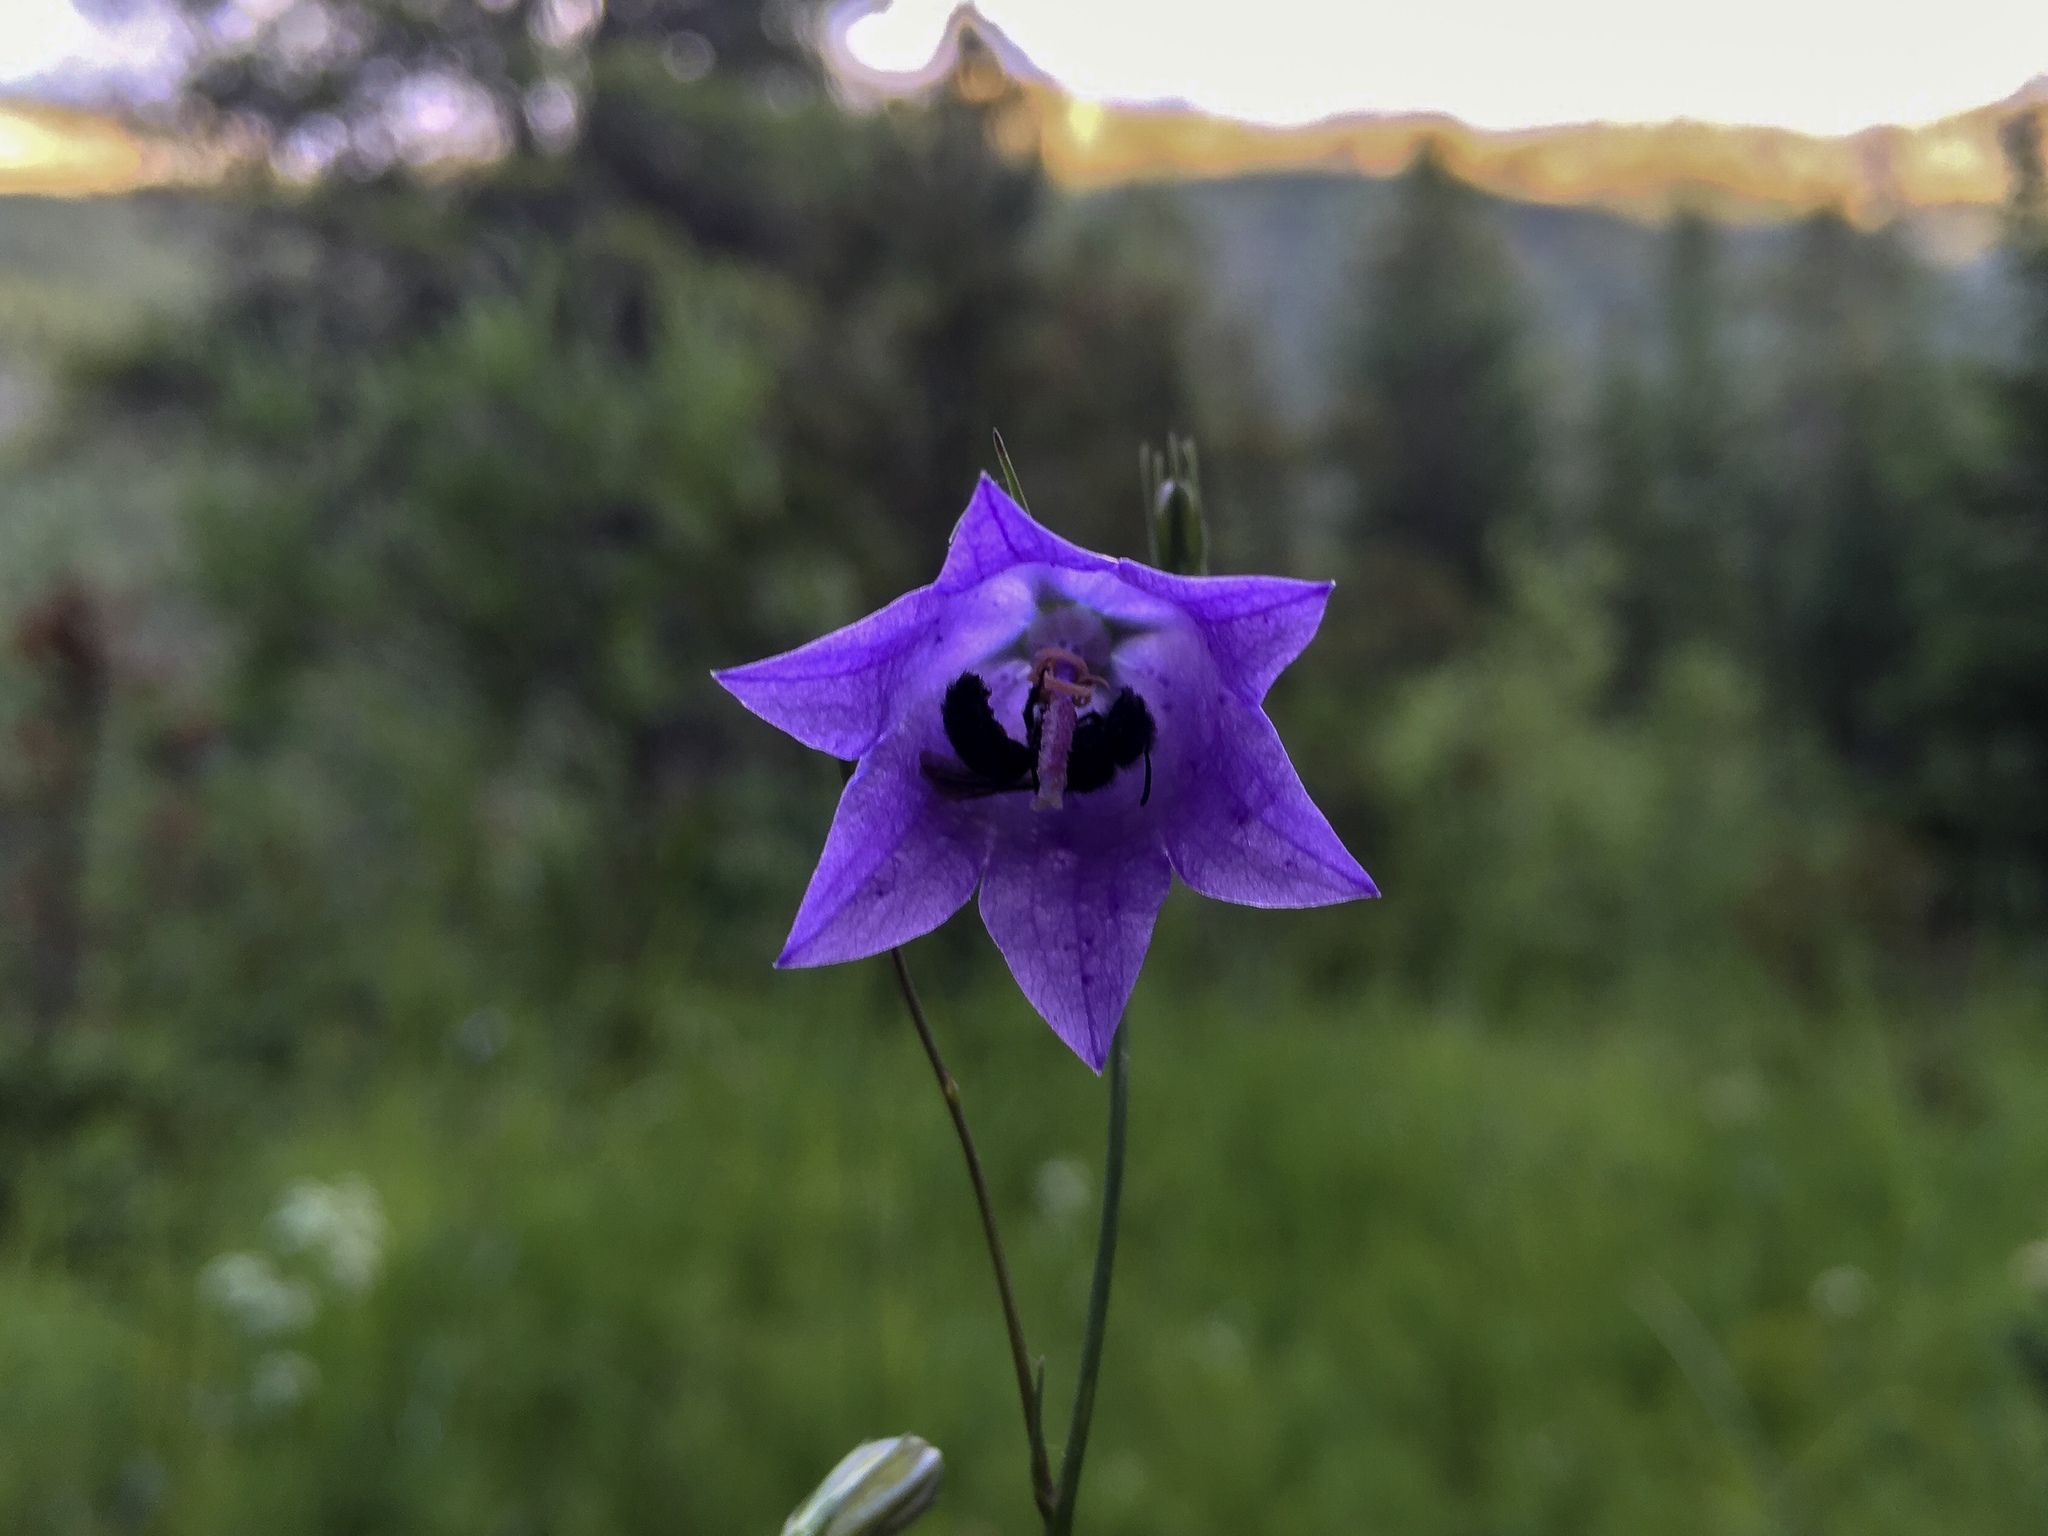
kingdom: Plantae
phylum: Tracheophyta
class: Magnoliopsida
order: Asterales
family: Campanulaceae
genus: Campanula
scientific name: Campanula petiolata
